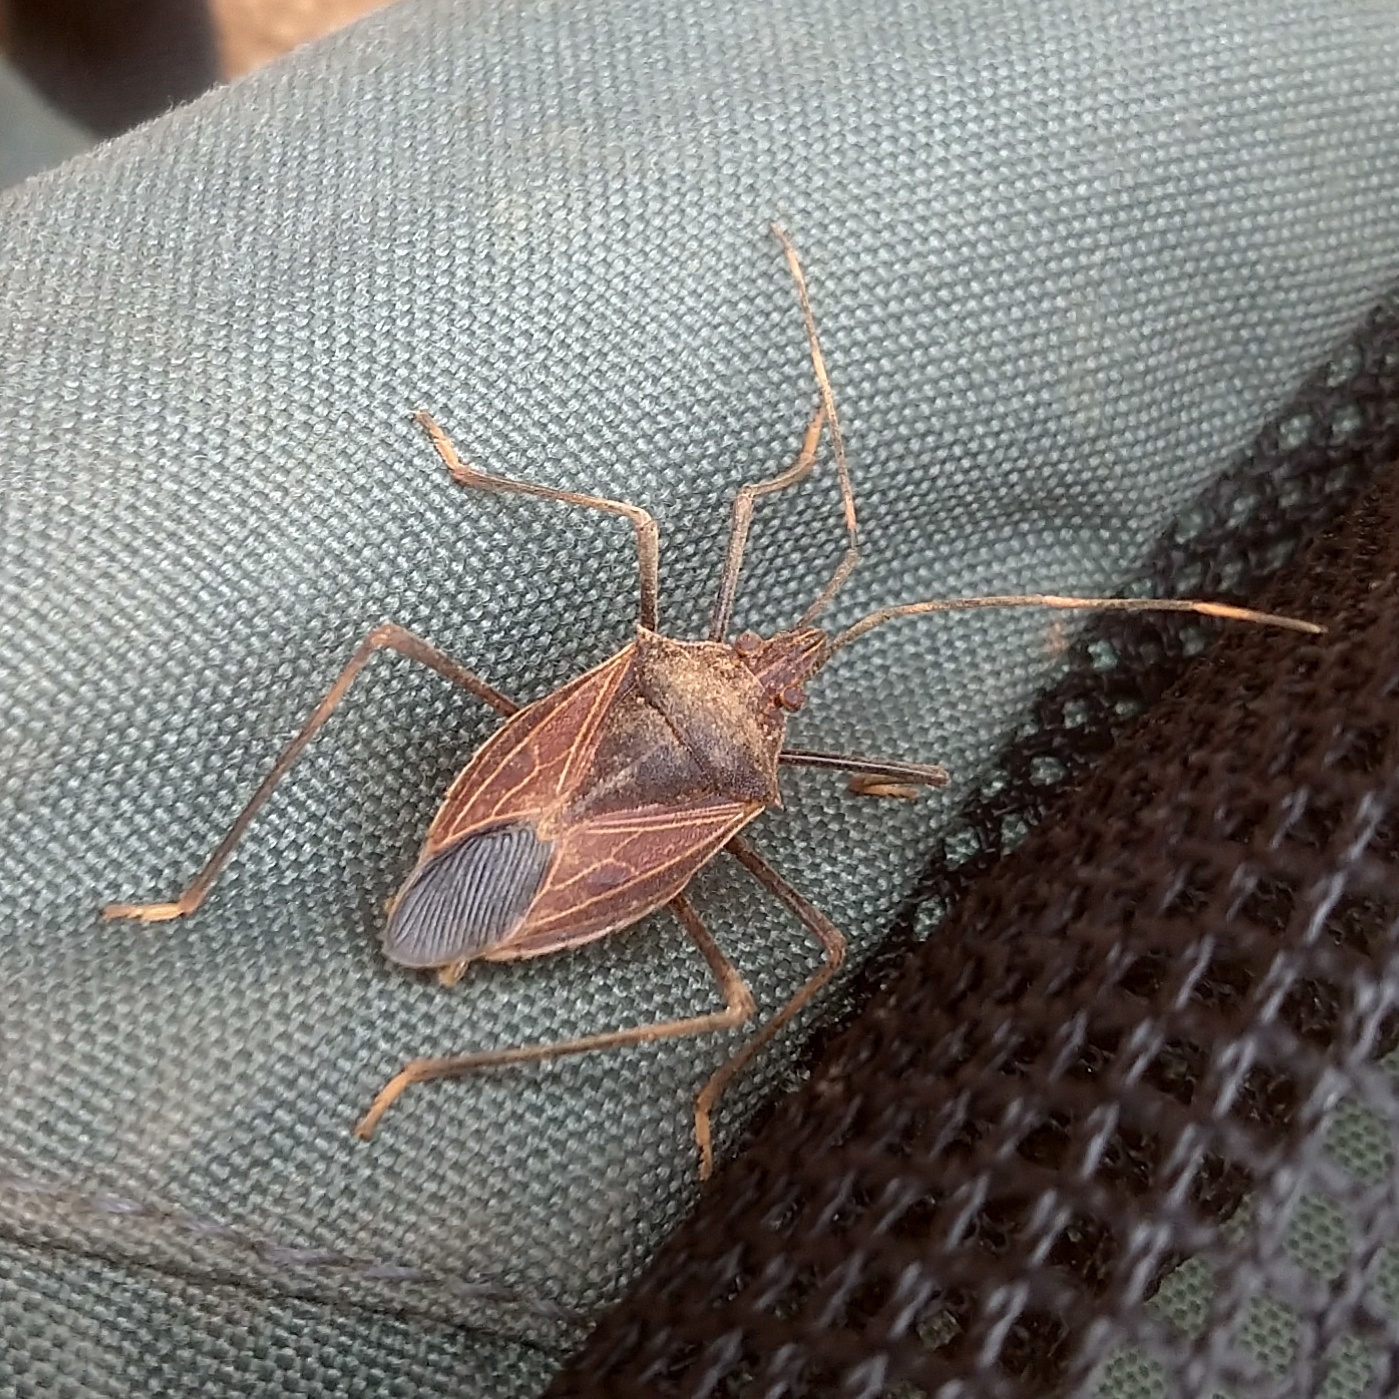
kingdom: Animalia
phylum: Arthropoda
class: Insecta
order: Hemiptera
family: Pentatomidae
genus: Poecilometis
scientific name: Poecilometis
